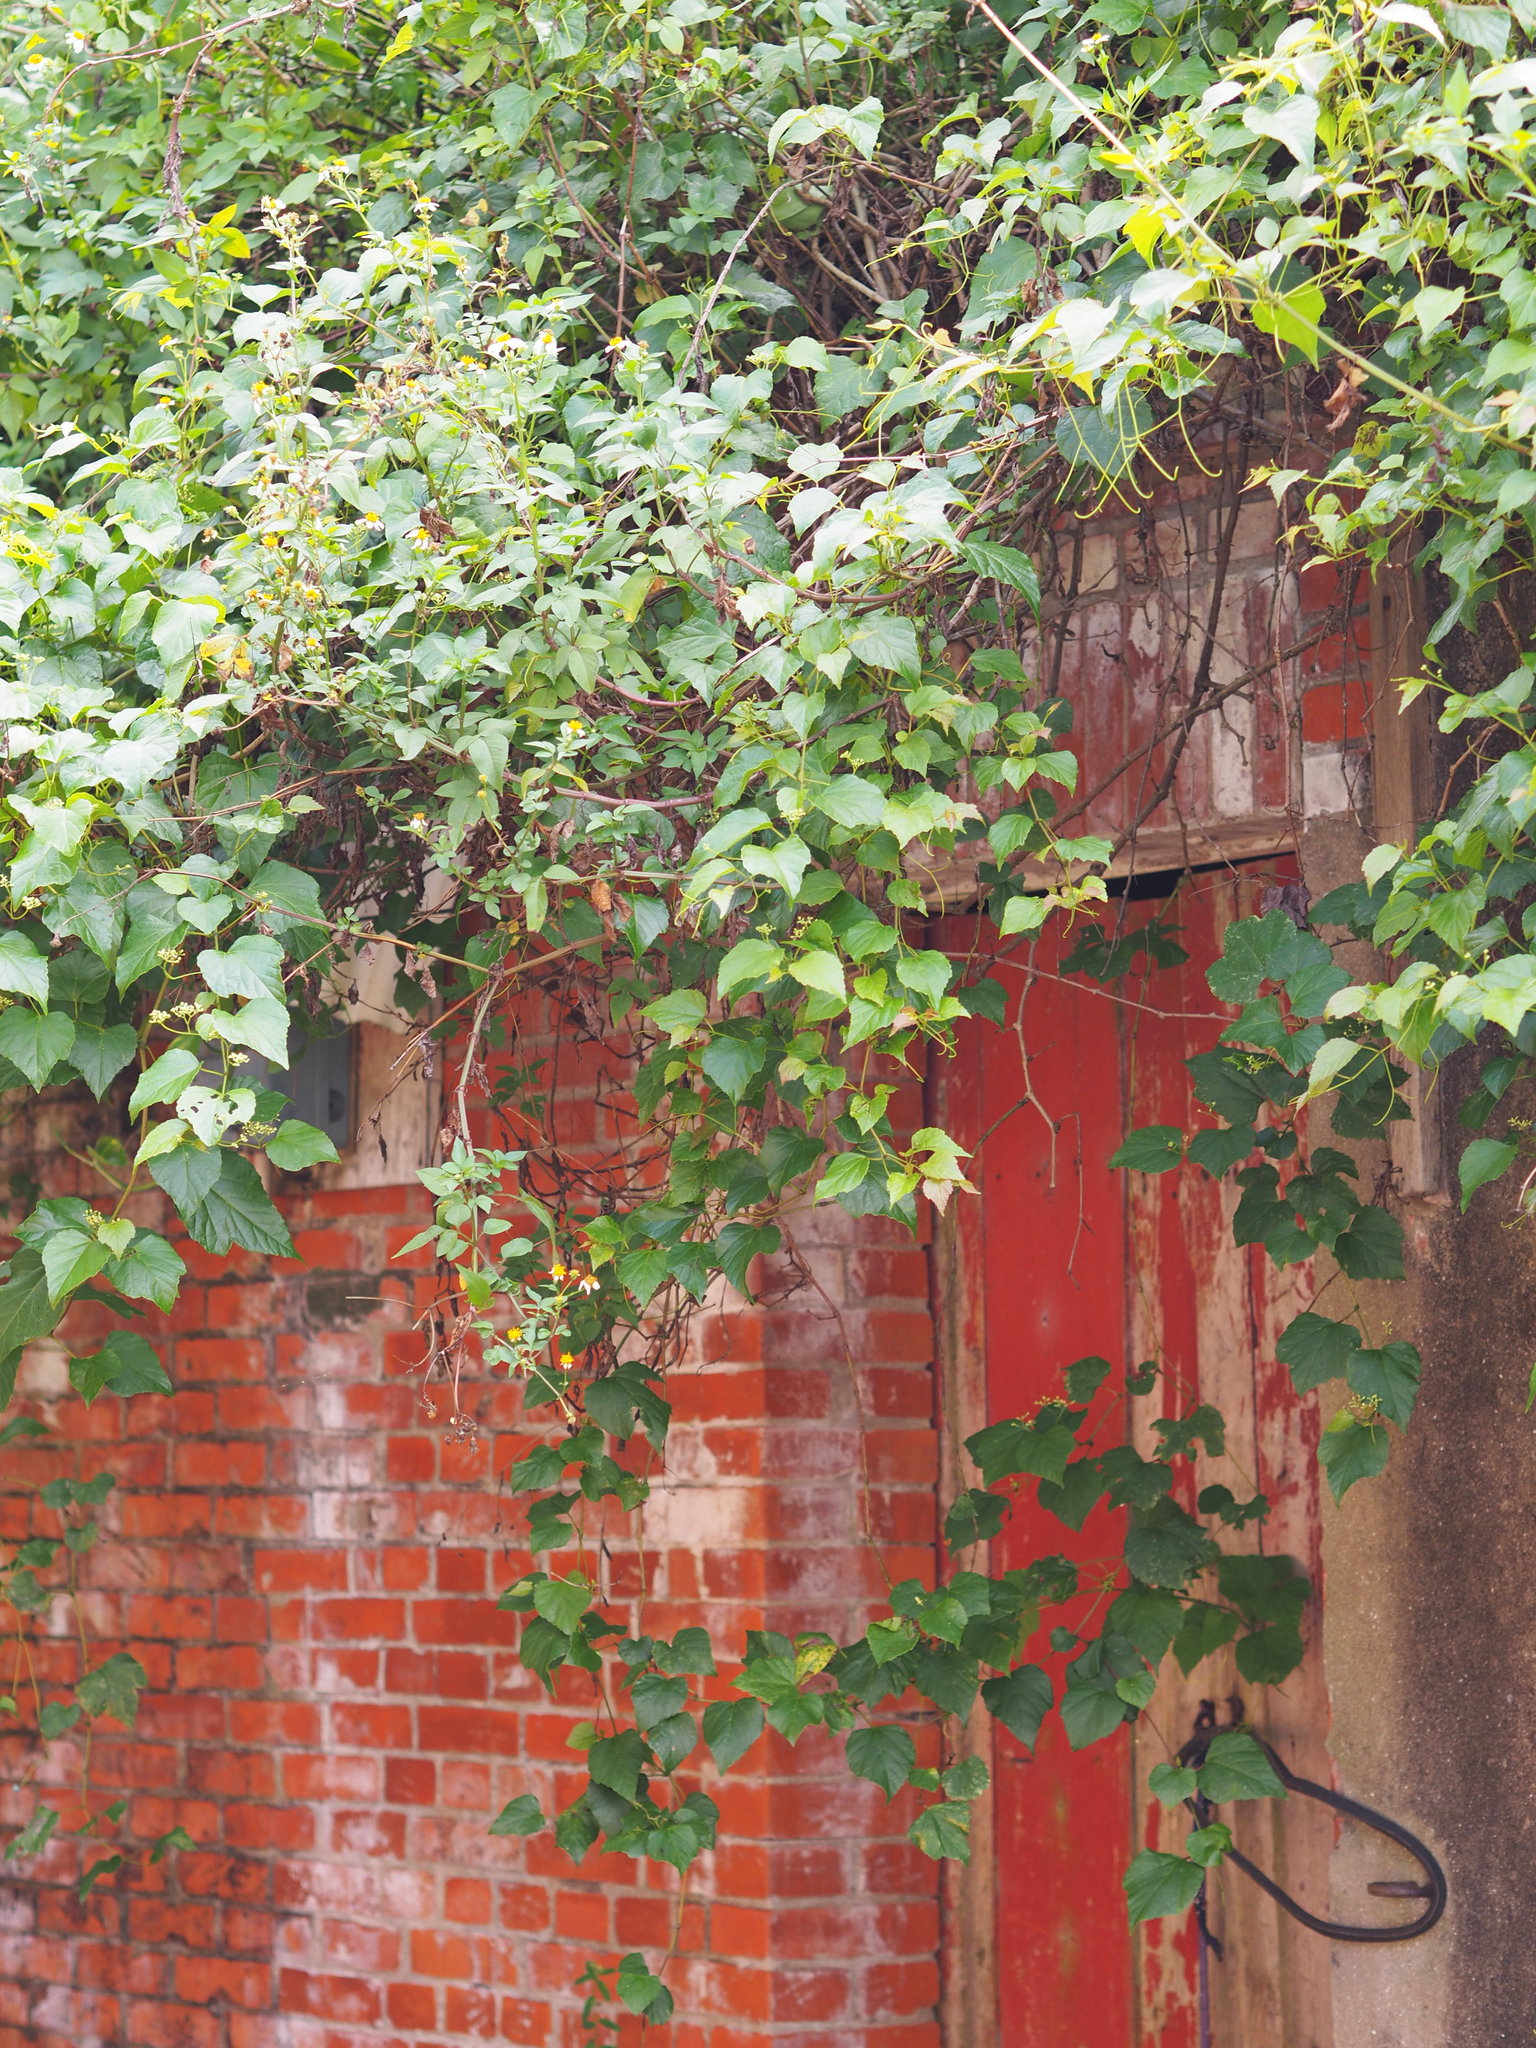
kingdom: Plantae
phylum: Tracheophyta
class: Magnoliopsida
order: Vitales
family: Vitaceae
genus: Ampelopsis
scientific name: Ampelopsis glandulosa
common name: Amur peppervine
